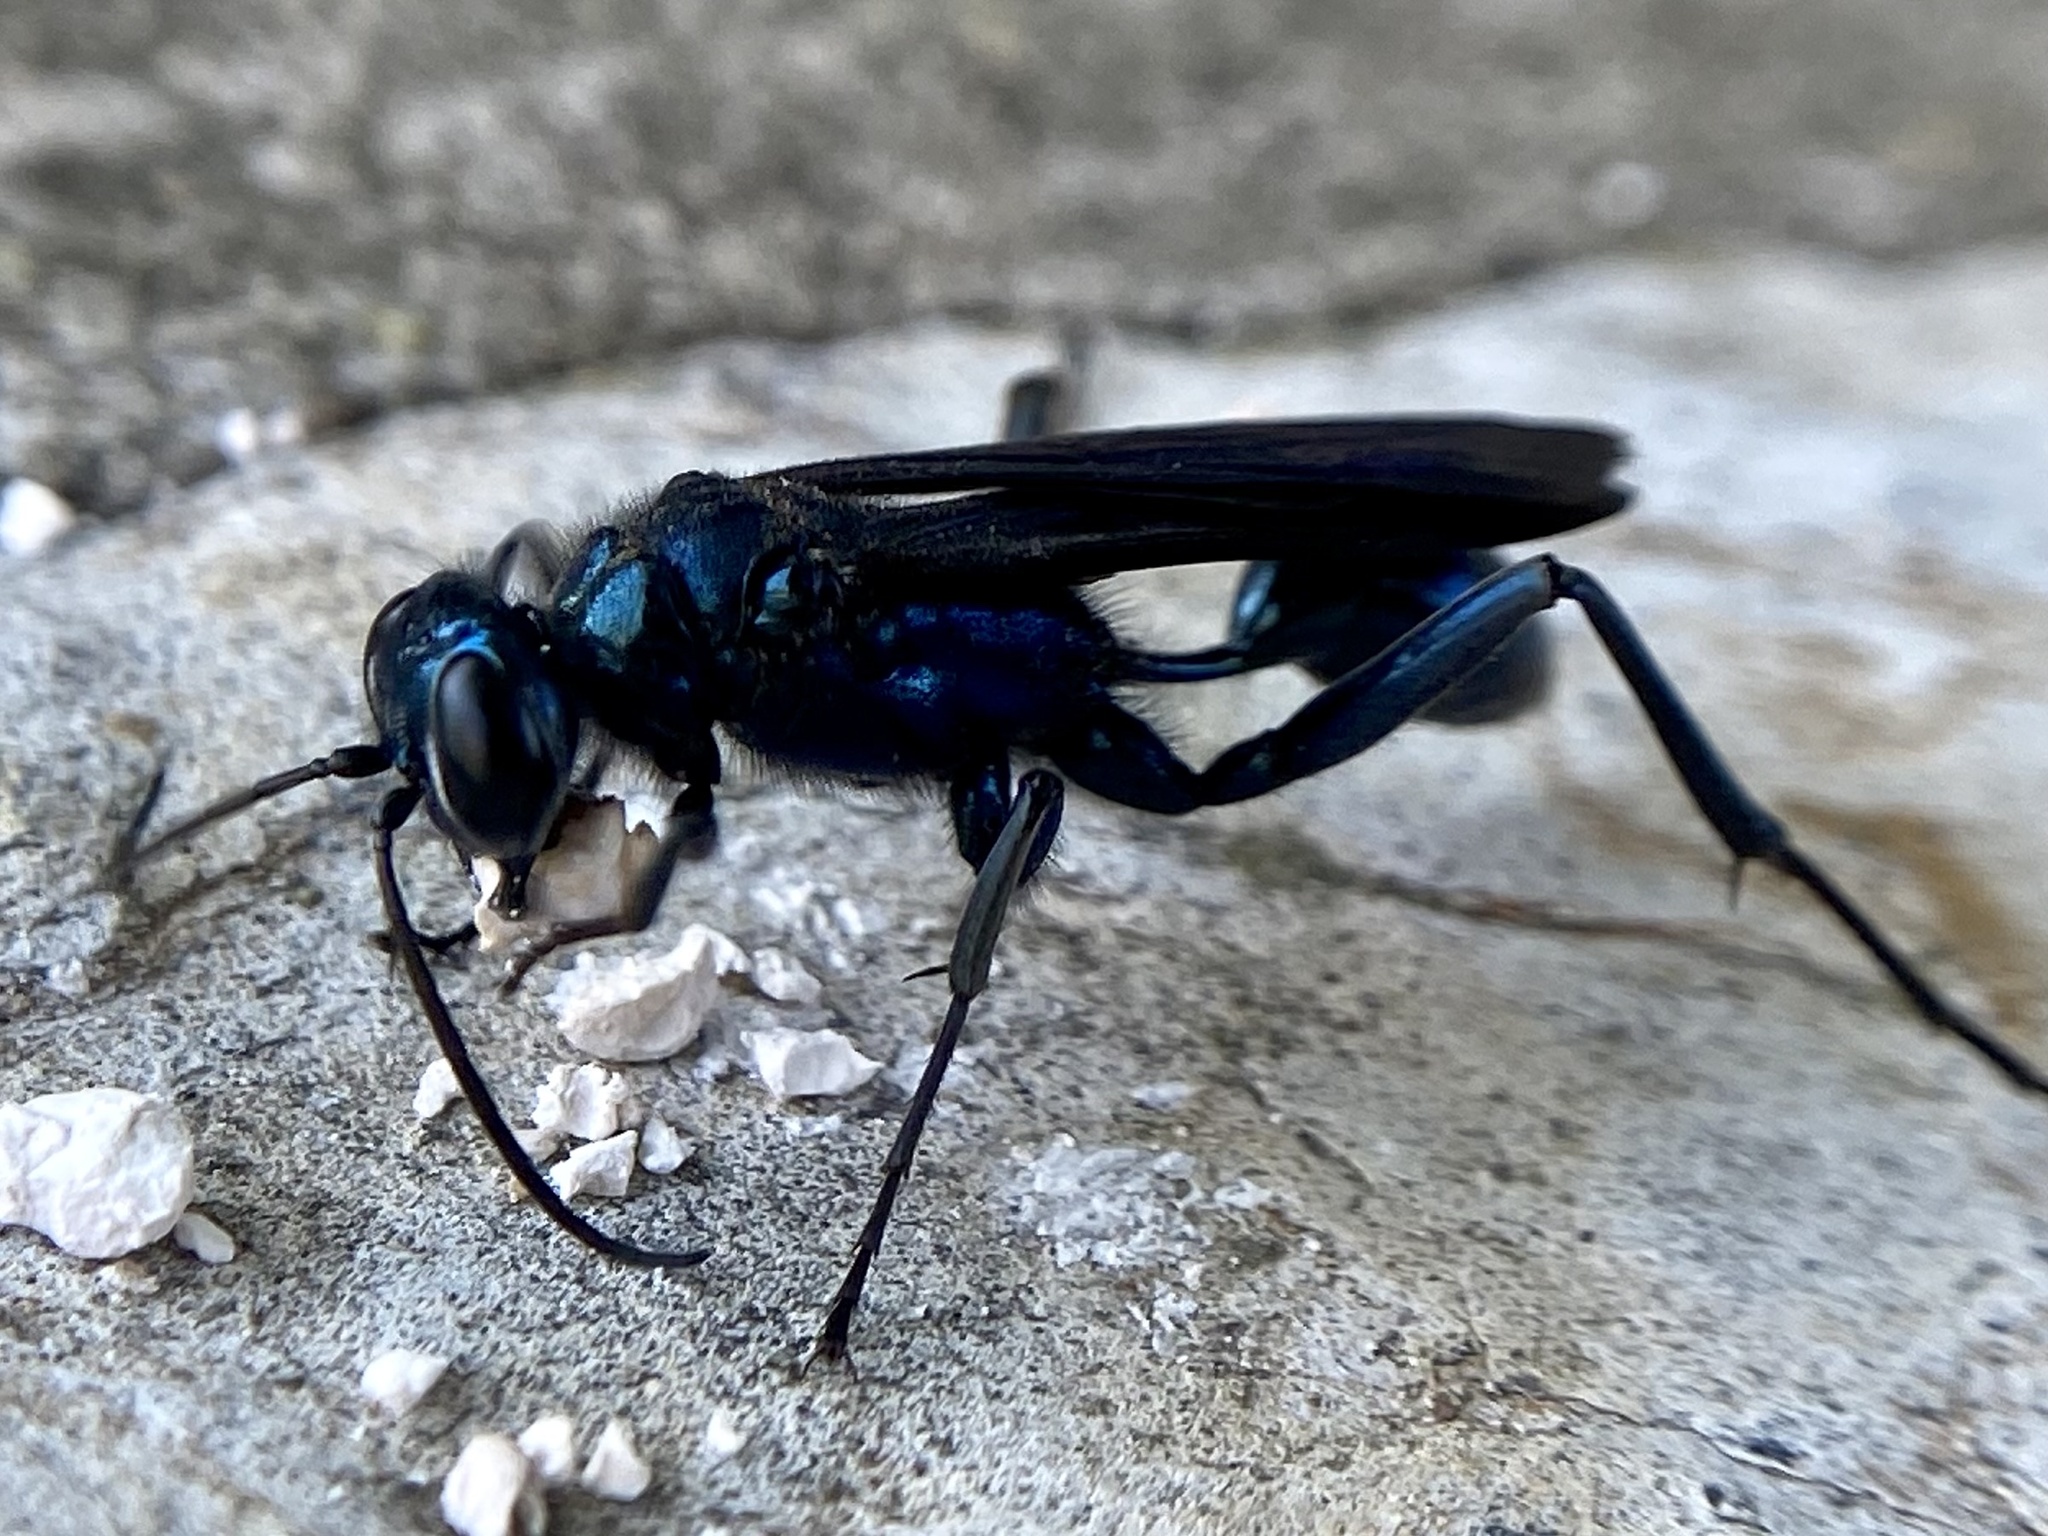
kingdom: Animalia
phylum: Arthropoda
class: Insecta
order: Hymenoptera
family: Sphecidae
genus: Chalybion
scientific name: Chalybion californicum
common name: Mud dauber
